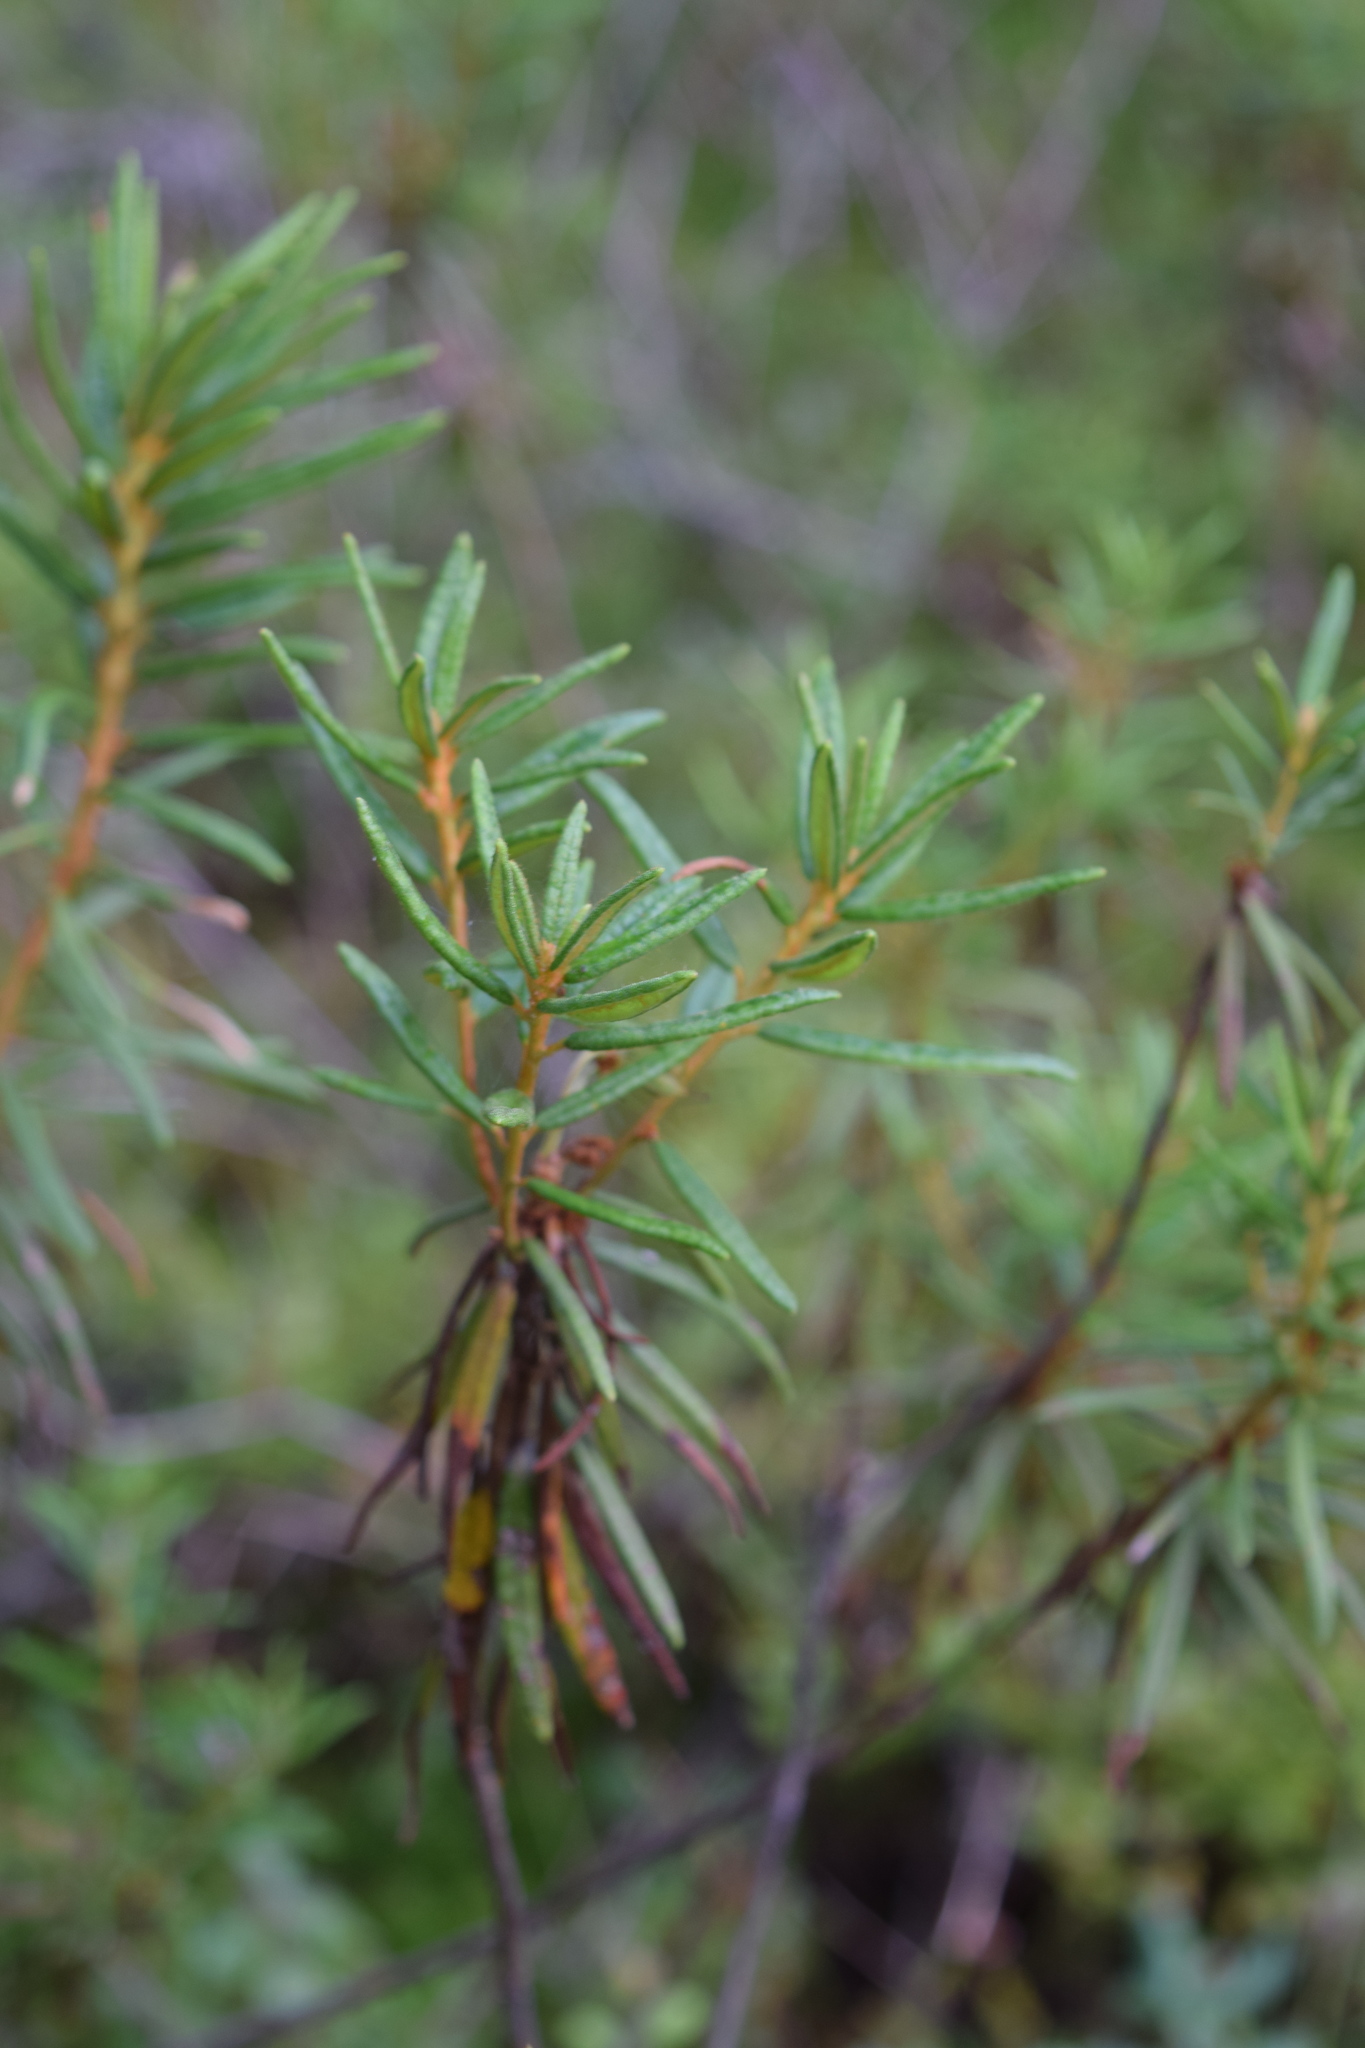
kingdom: Plantae
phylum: Tracheophyta
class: Magnoliopsida
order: Ericales
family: Ericaceae
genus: Rhododendron
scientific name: Rhododendron tomentosum
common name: Marsh labrador tea
